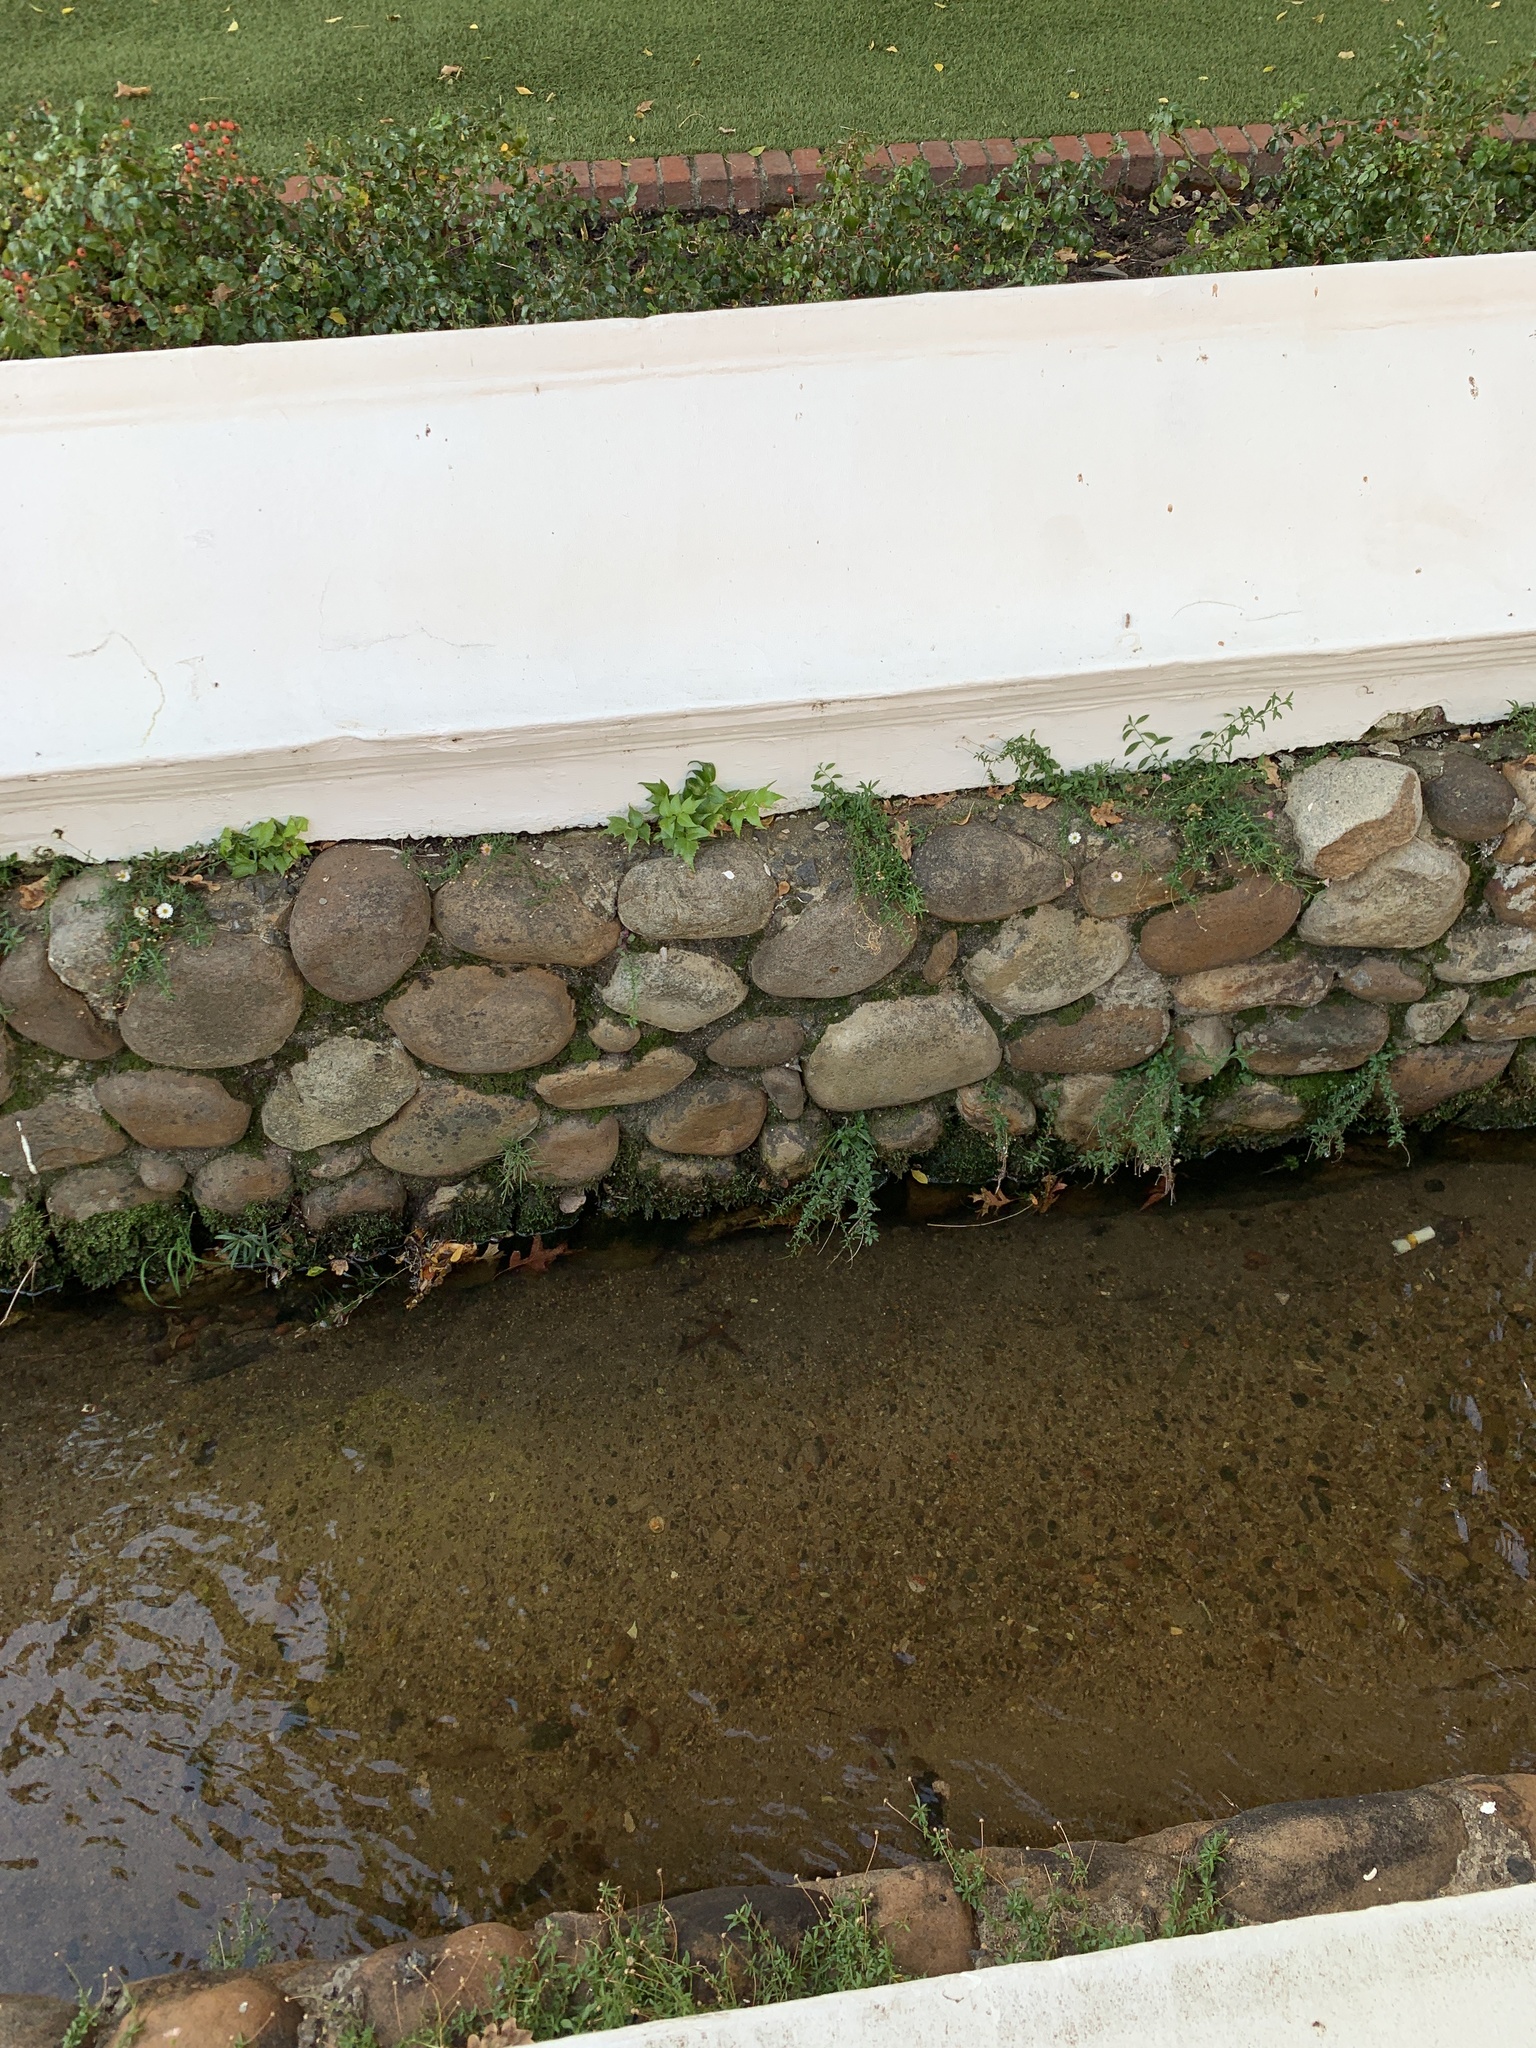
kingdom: Plantae
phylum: Tracheophyta
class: Polypodiopsida
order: Polypodiales
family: Dryopteridaceae
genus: Cyrtomium
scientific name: Cyrtomium falcatum
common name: House holly-fern
